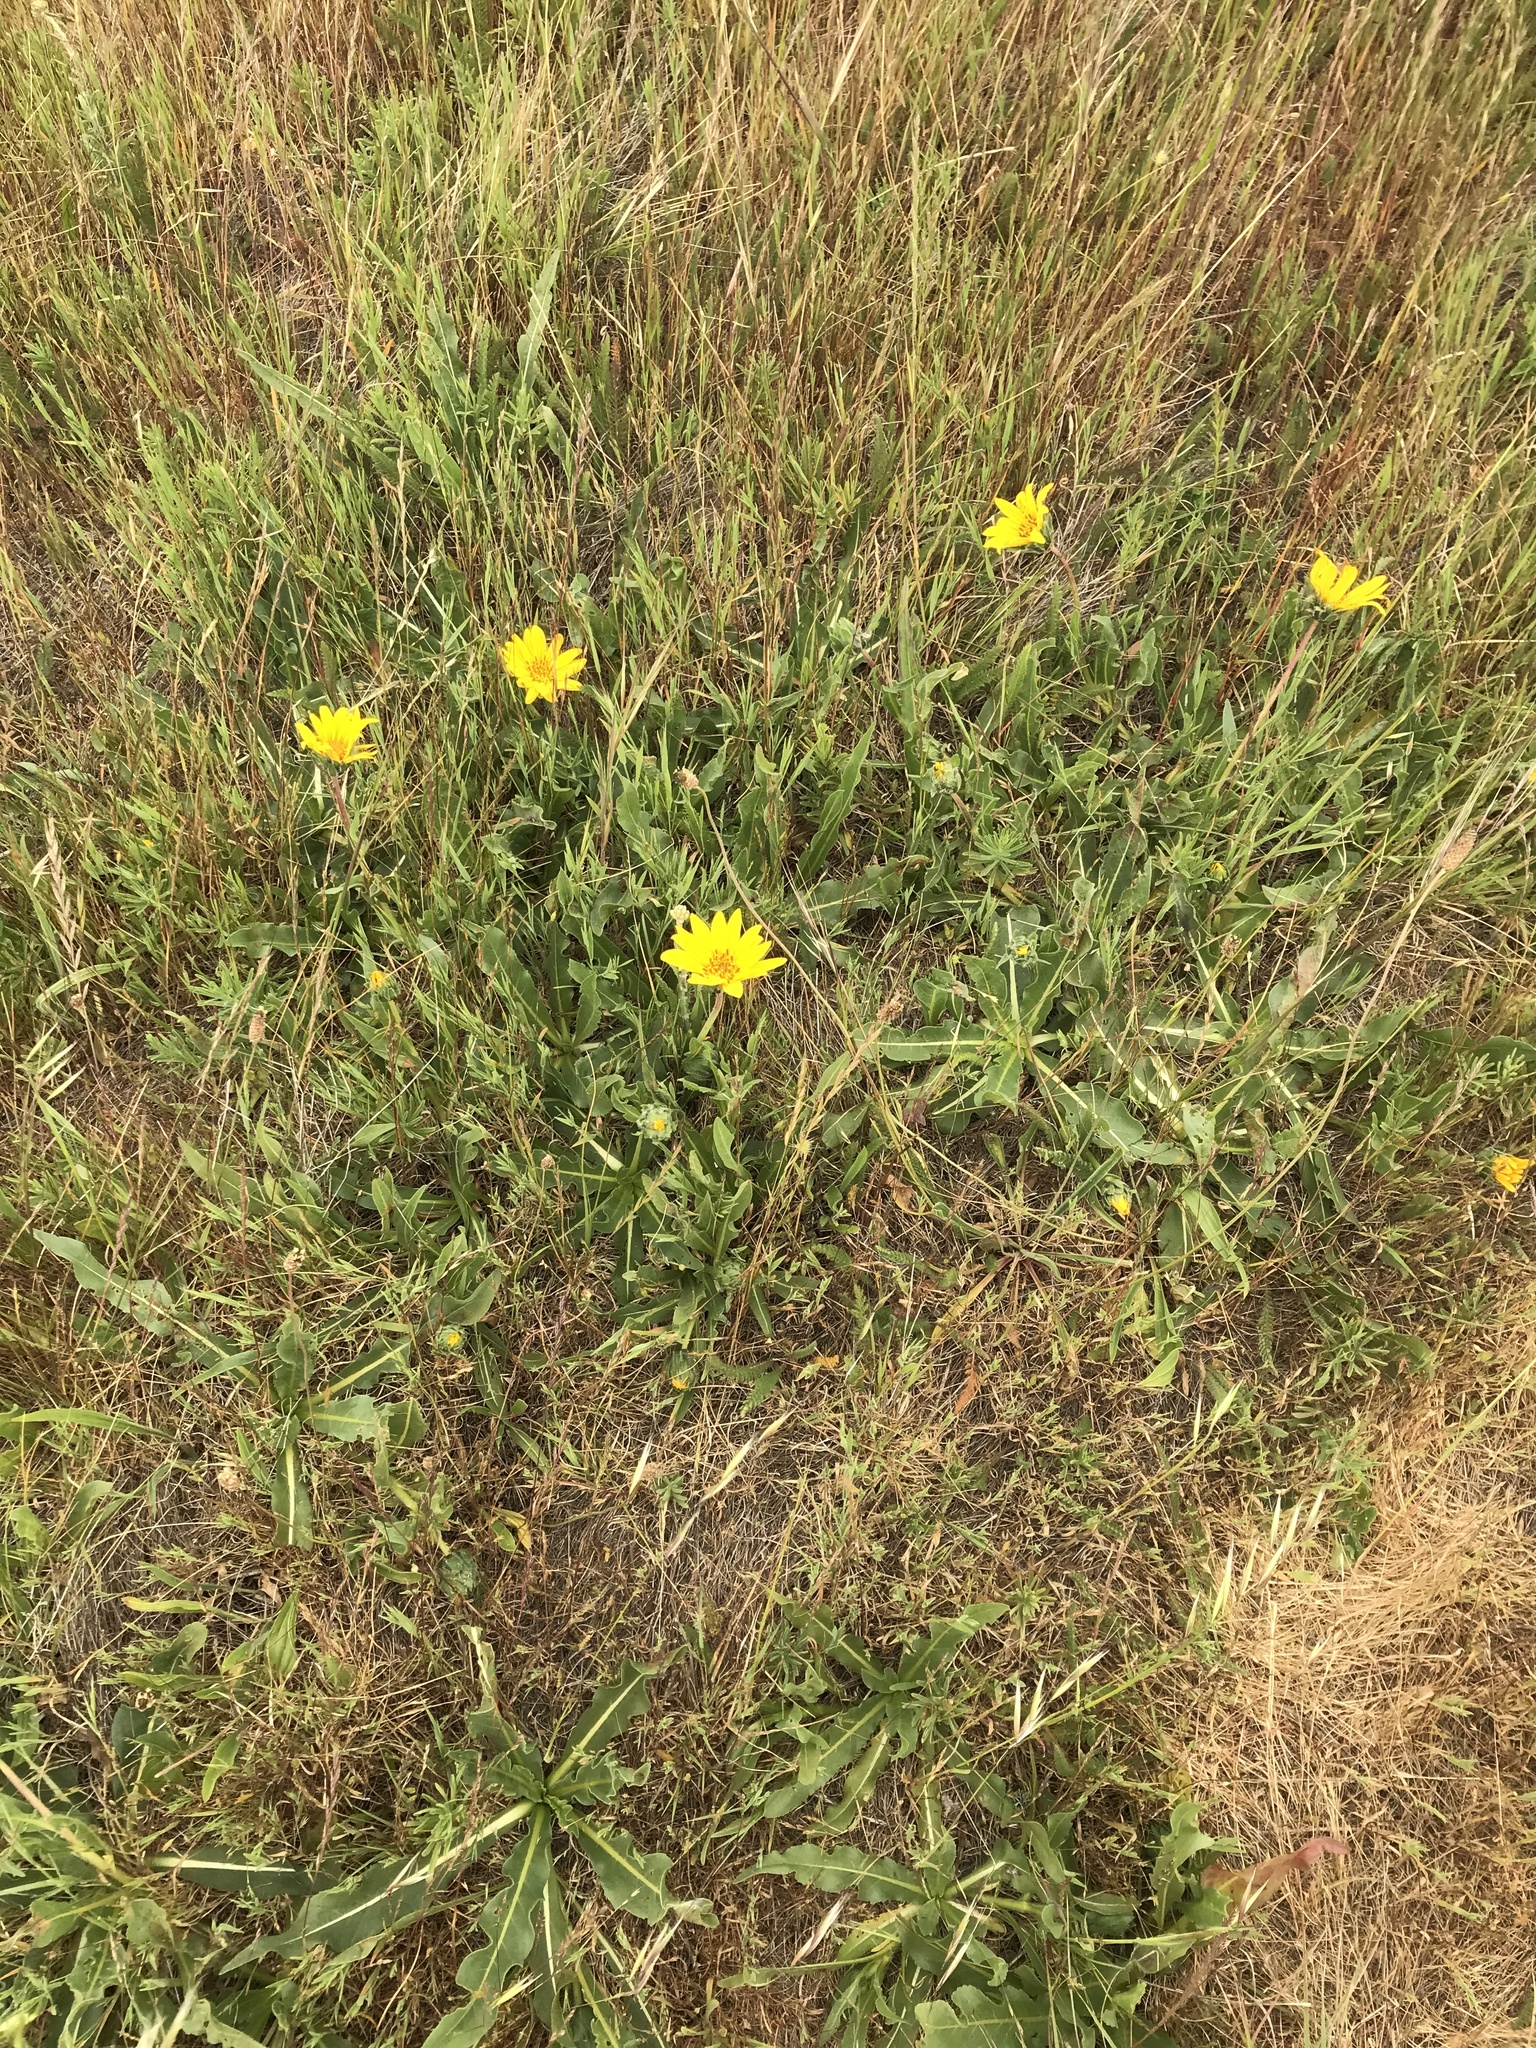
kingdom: Plantae
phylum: Tracheophyta
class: Magnoliopsida
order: Asterales
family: Asteraceae
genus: Wyethia
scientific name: Wyethia angustifolia
